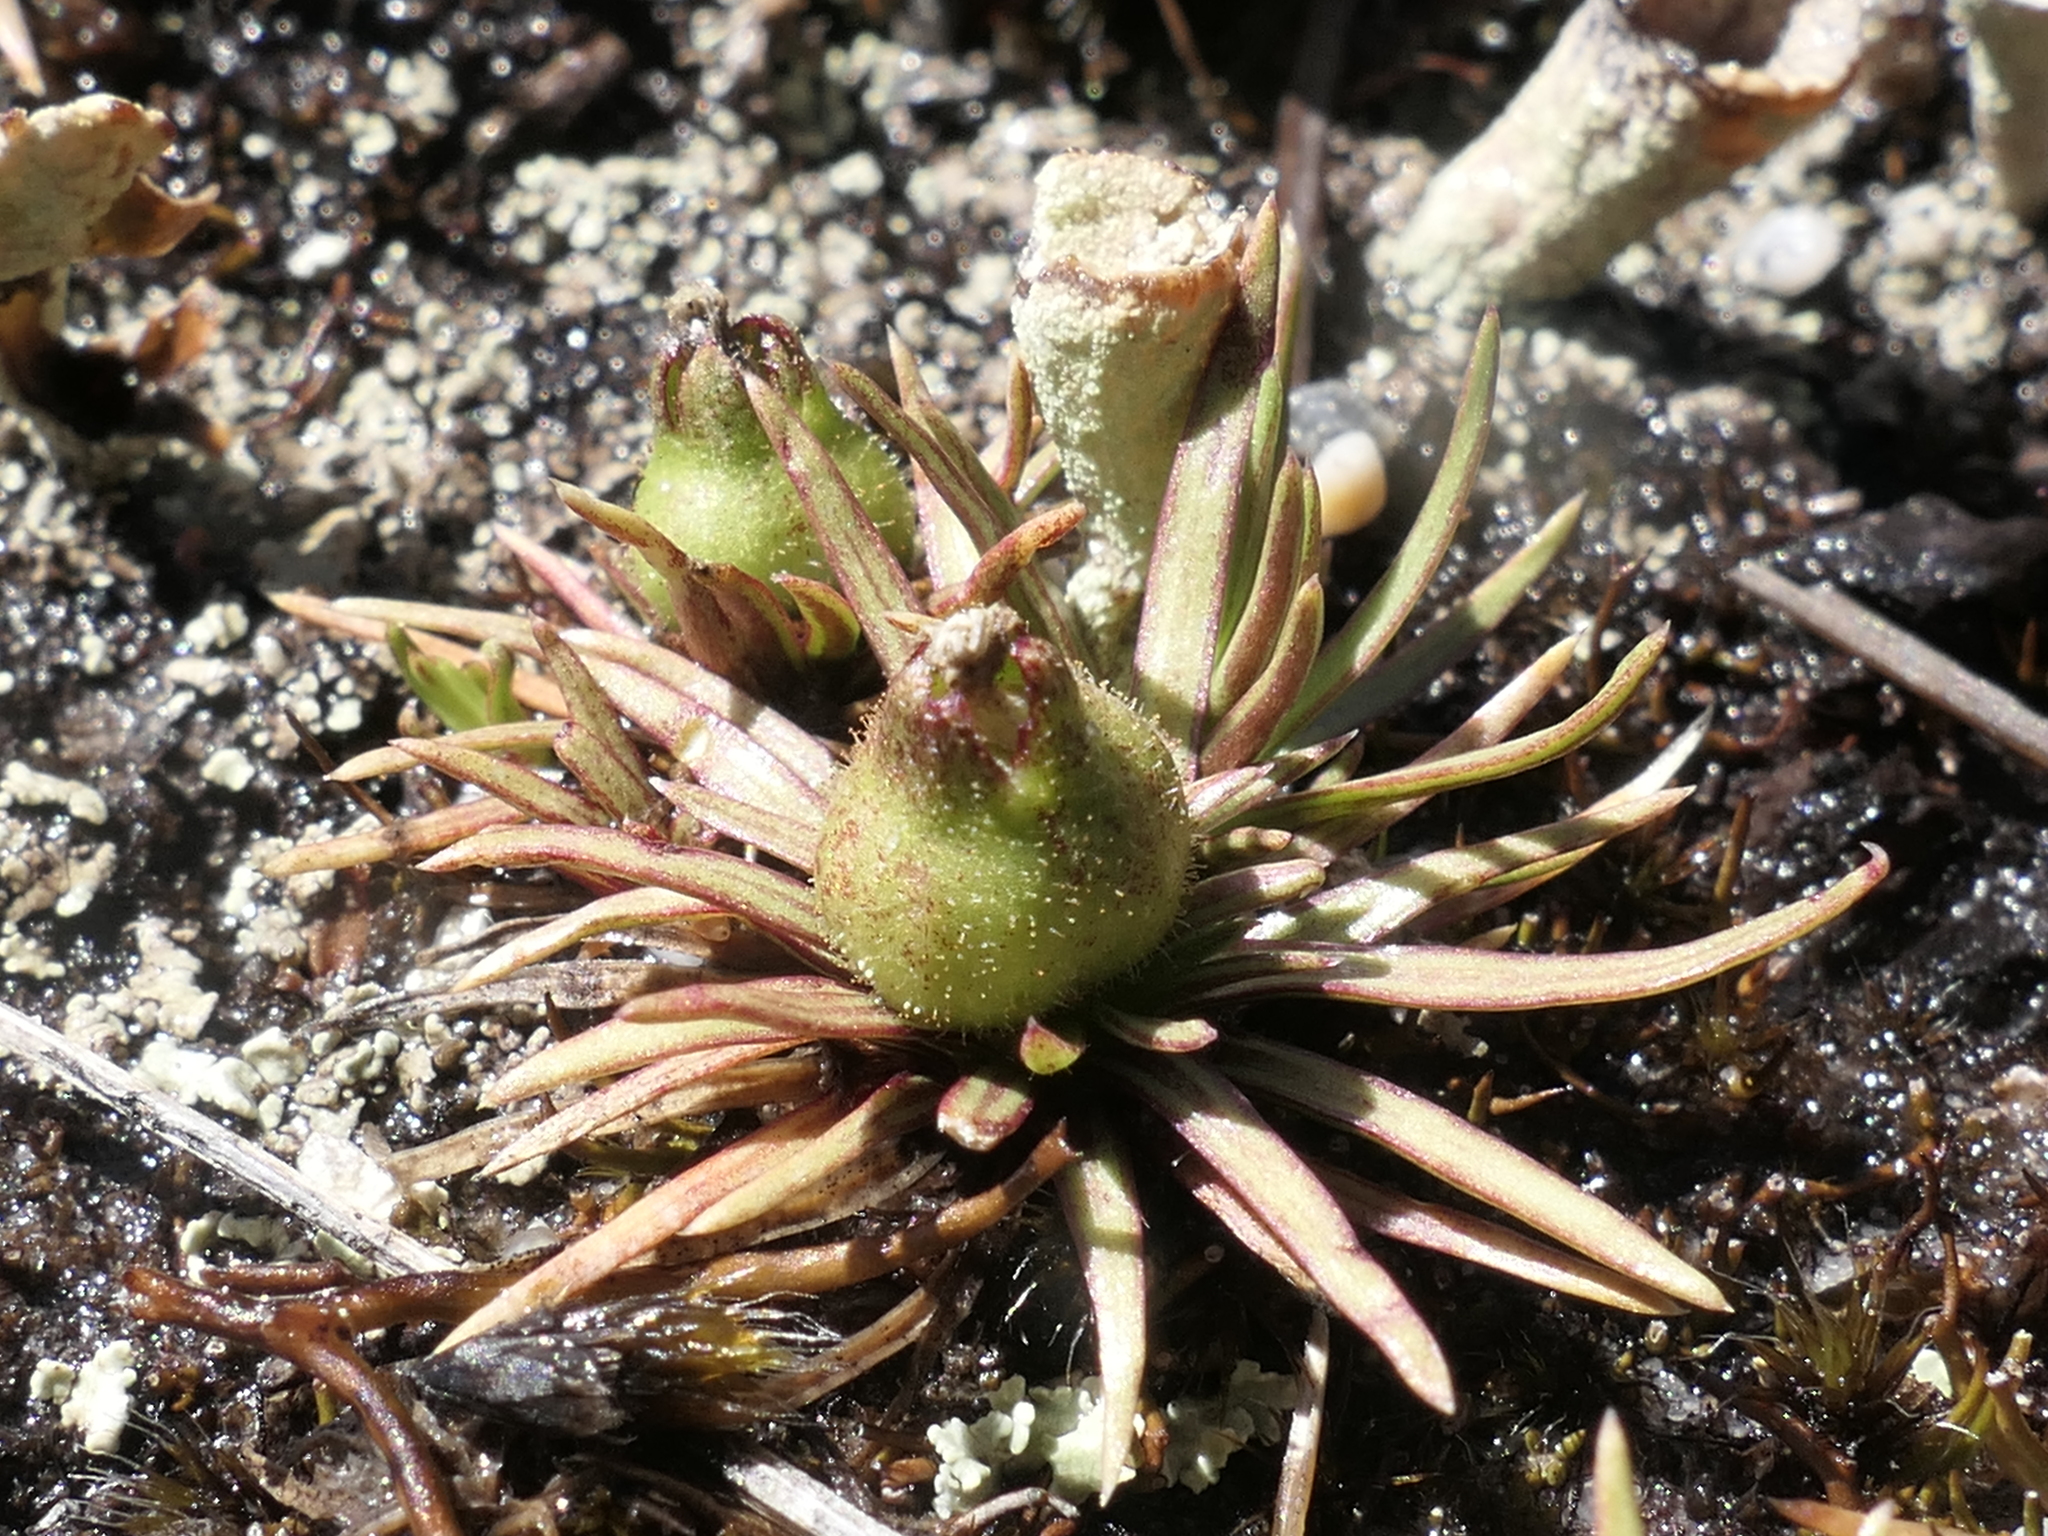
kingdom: Plantae
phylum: Tracheophyta
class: Magnoliopsida
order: Asterales
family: Stylidiaceae
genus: Oreostylidium
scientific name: Oreostylidium subulatum
